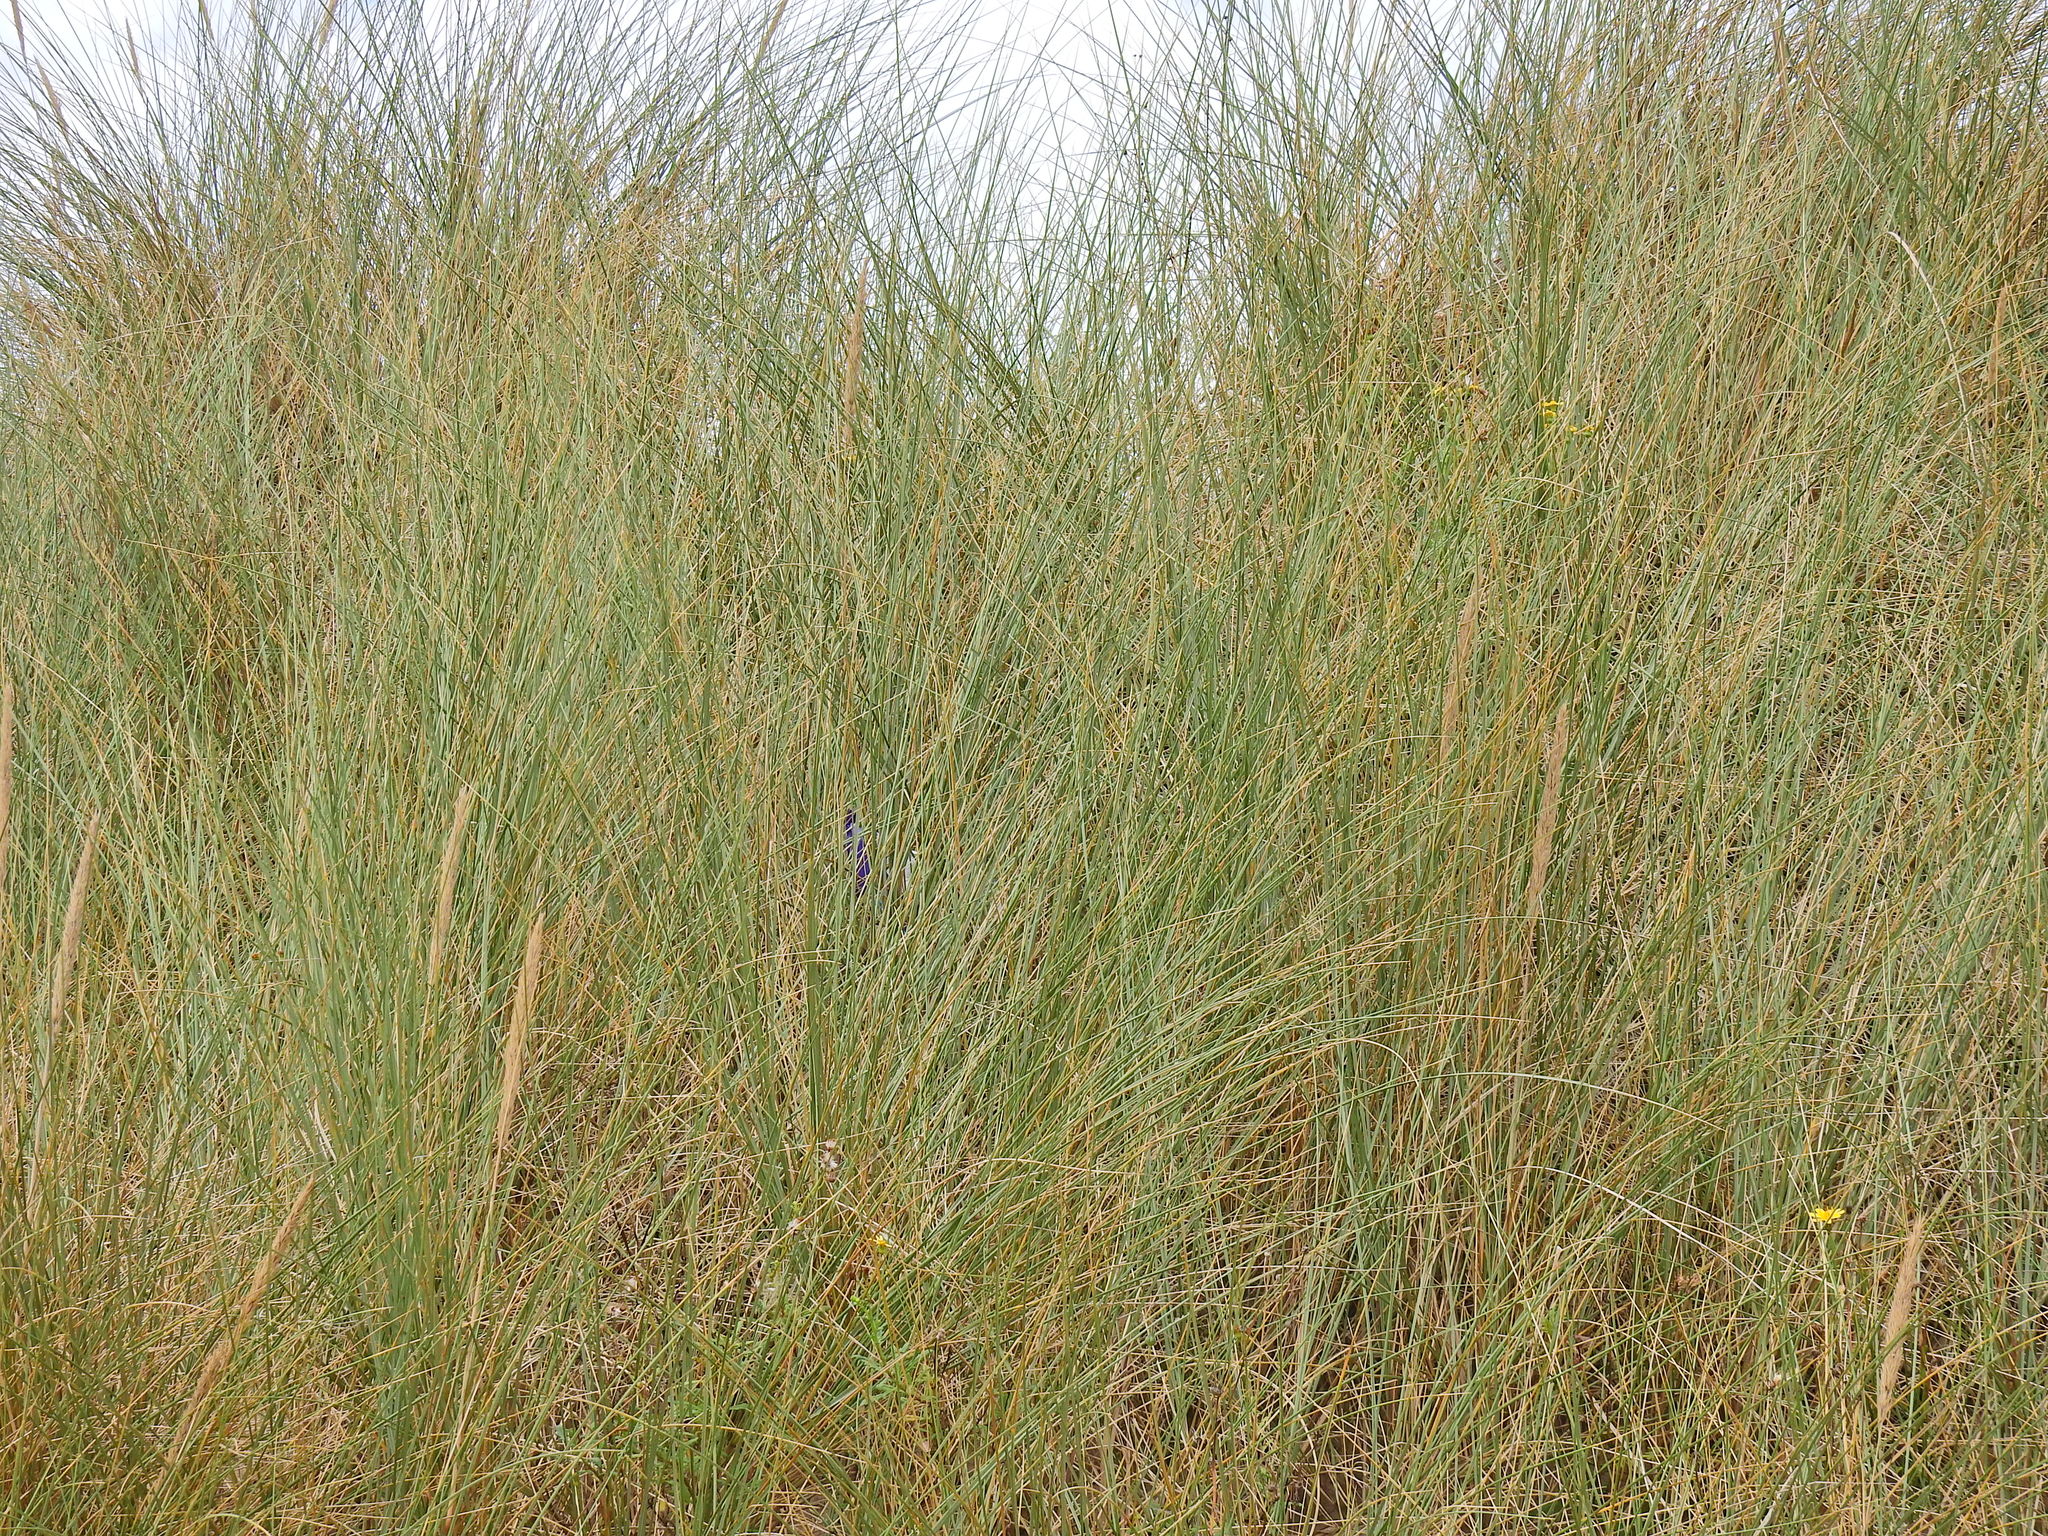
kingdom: Plantae
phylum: Tracheophyta
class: Liliopsida
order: Poales
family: Poaceae
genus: Calamagrostis
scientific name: Calamagrostis arenaria
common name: European beachgrass
